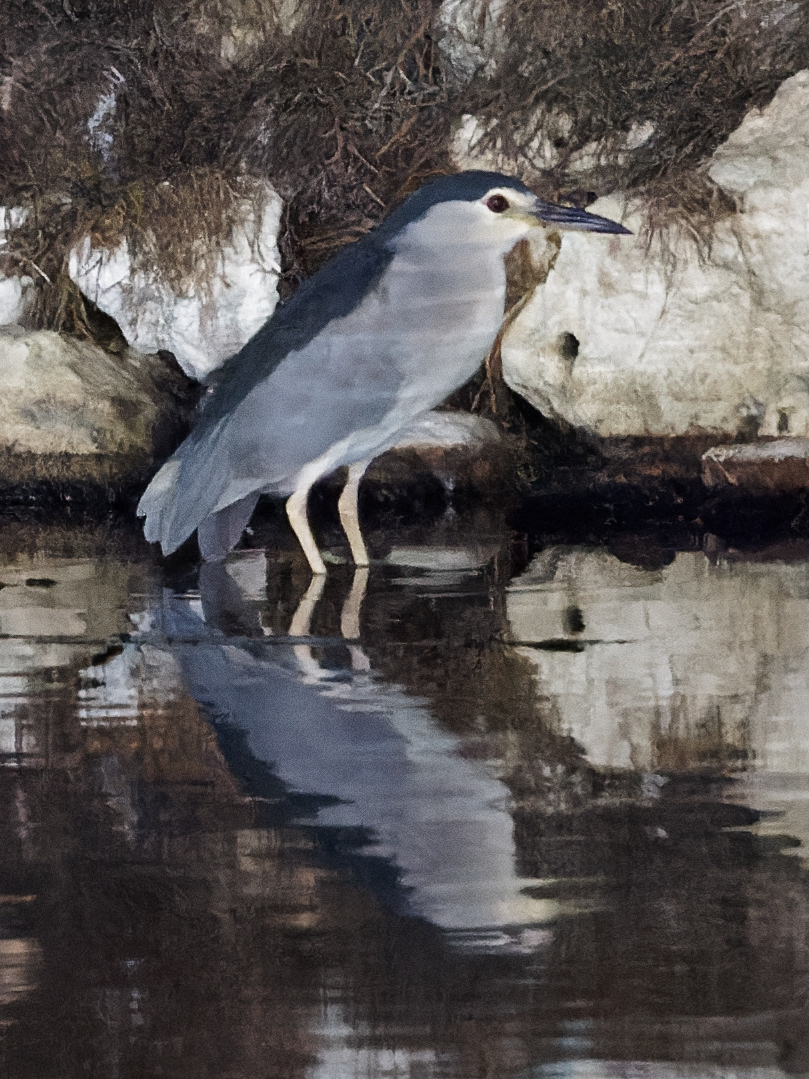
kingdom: Animalia
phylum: Chordata
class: Aves
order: Pelecaniformes
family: Ardeidae
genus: Nycticorax
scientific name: Nycticorax nycticorax
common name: Black-crowned night heron
